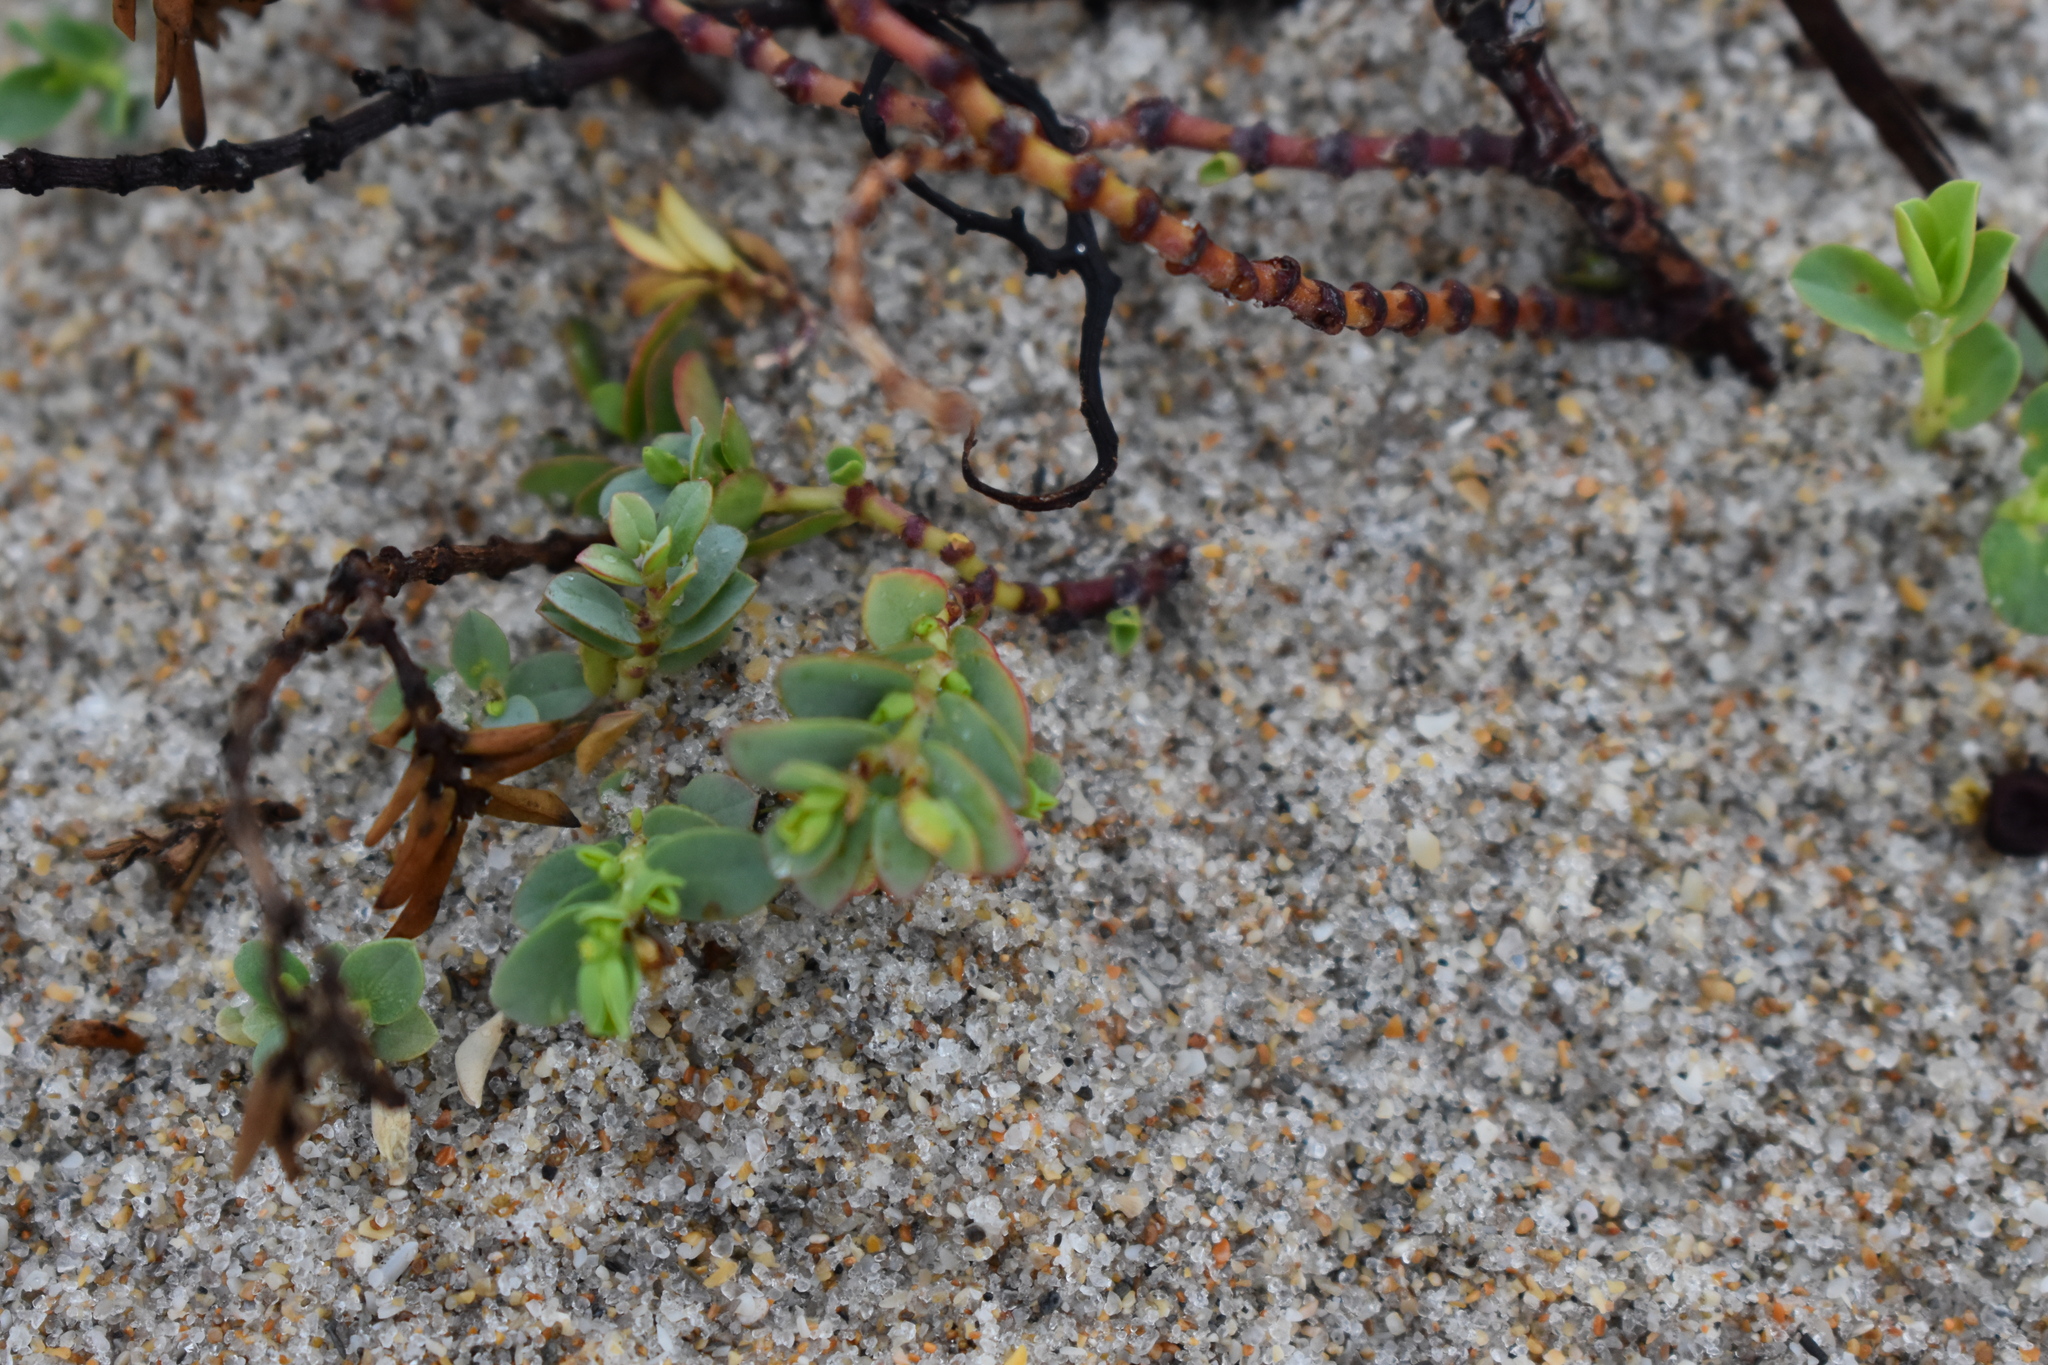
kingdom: Plantae
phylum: Tracheophyta
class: Magnoliopsida
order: Malpighiales
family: Euphorbiaceae
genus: Euphorbia
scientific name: Euphorbia mesembryanthemifolia
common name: Coastal beach sandmat
